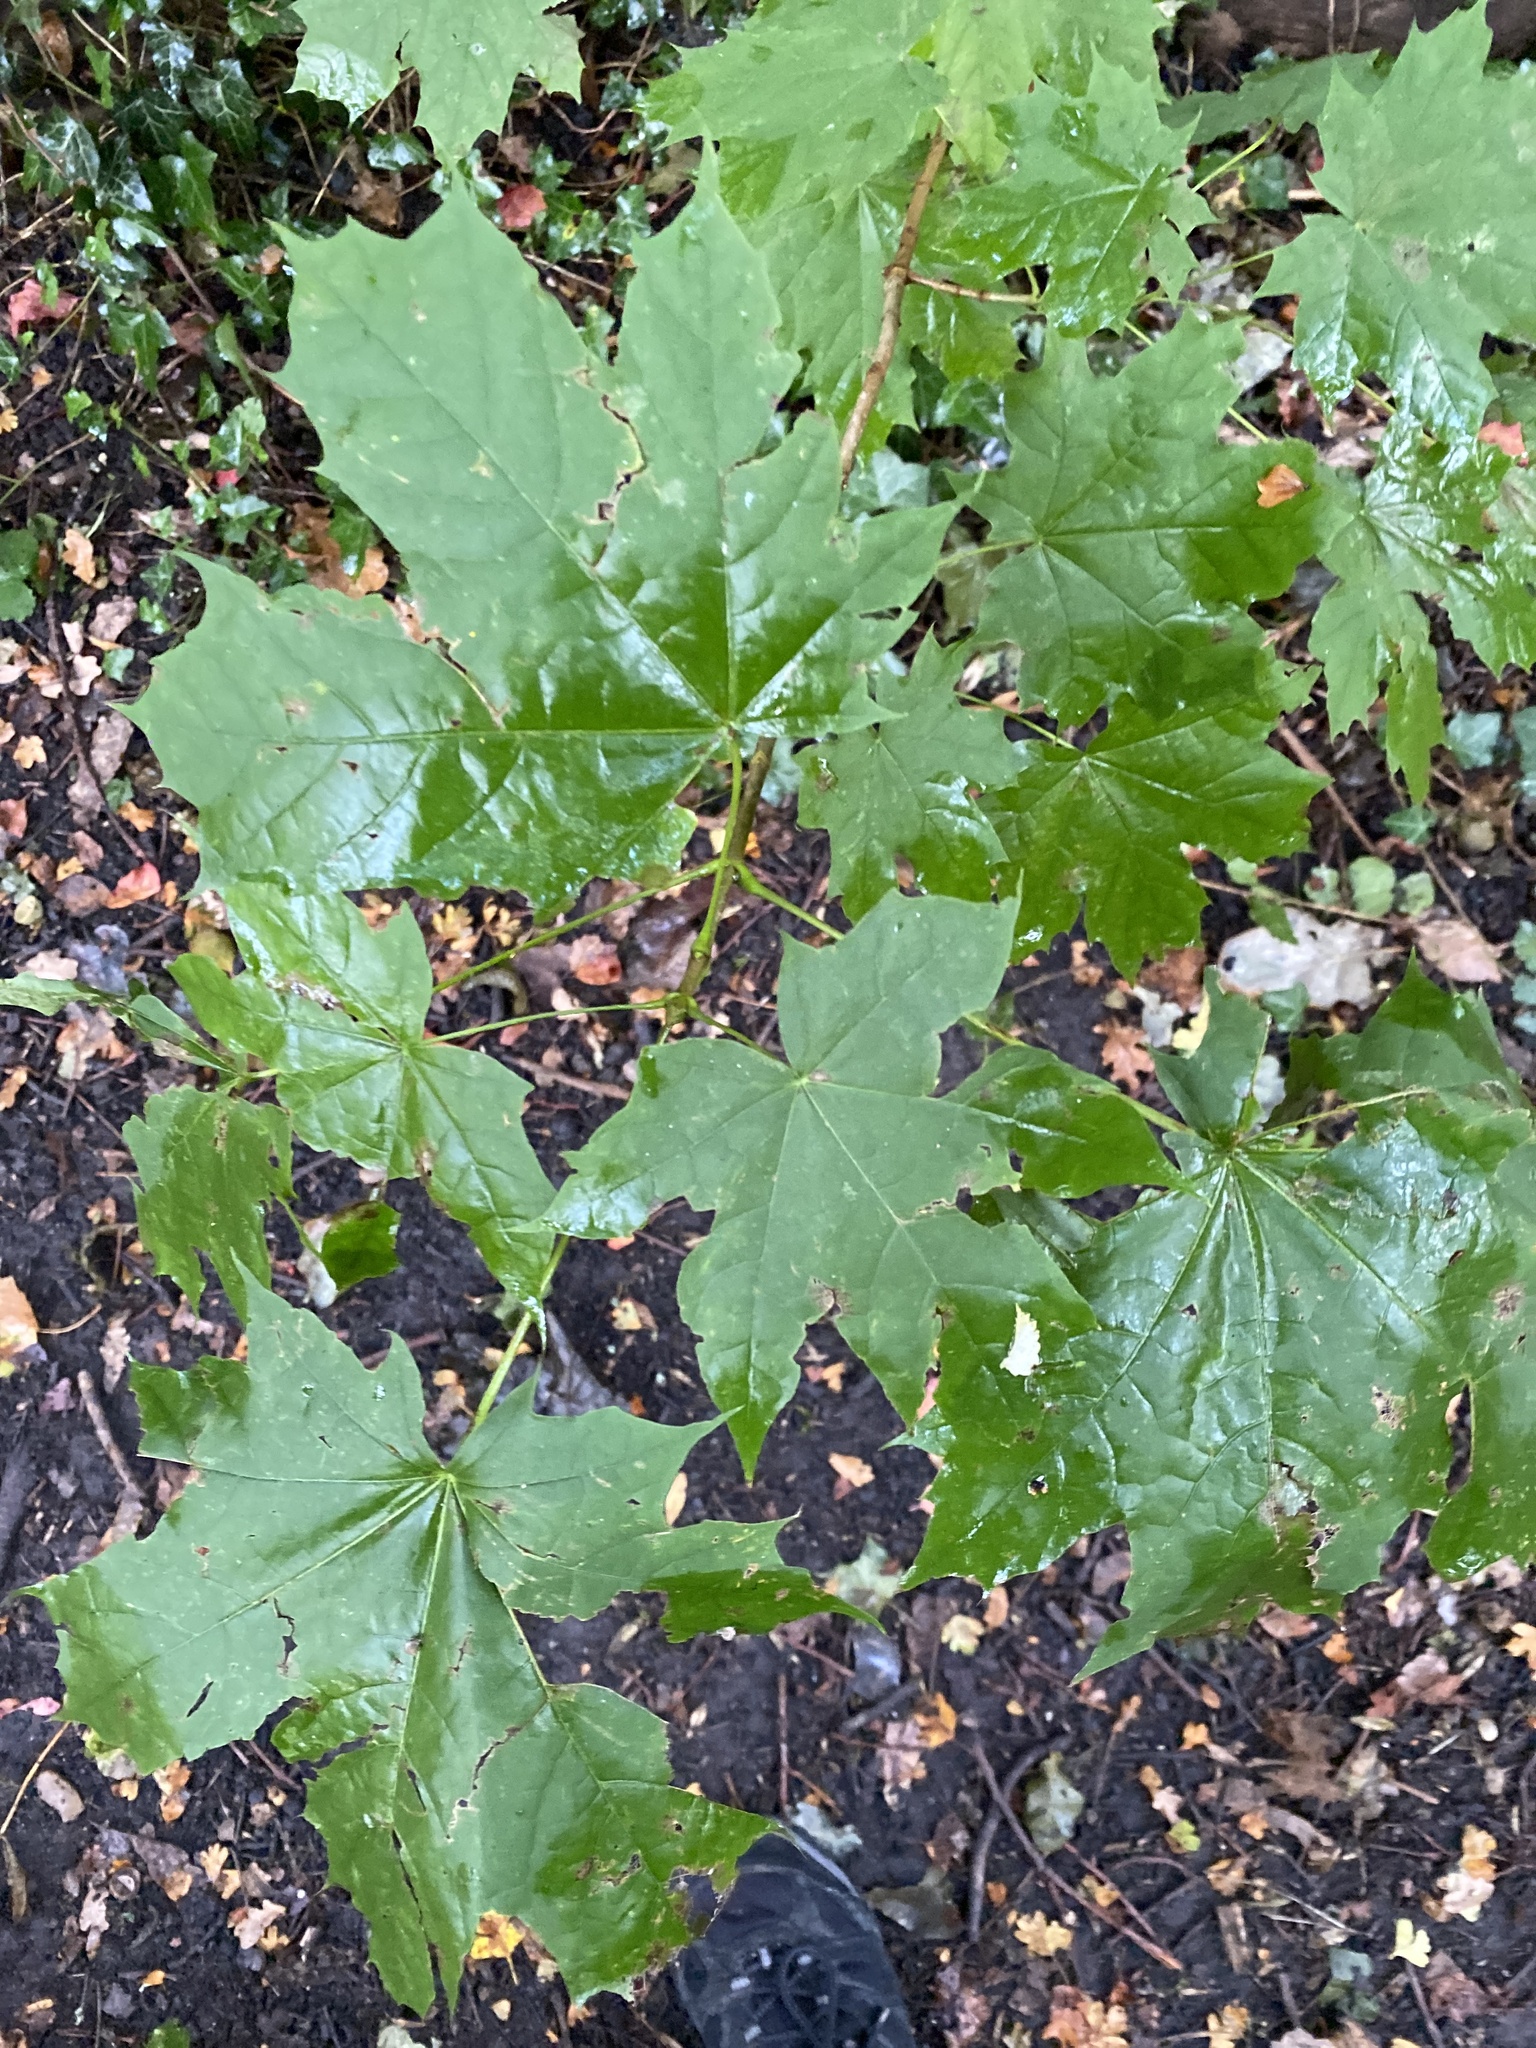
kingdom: Plantae
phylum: Tracheophyta
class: Magnoliopsida
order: Sapindales
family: Sapindaceae
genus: Acer
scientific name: Acer platanoides
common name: Norway maple
